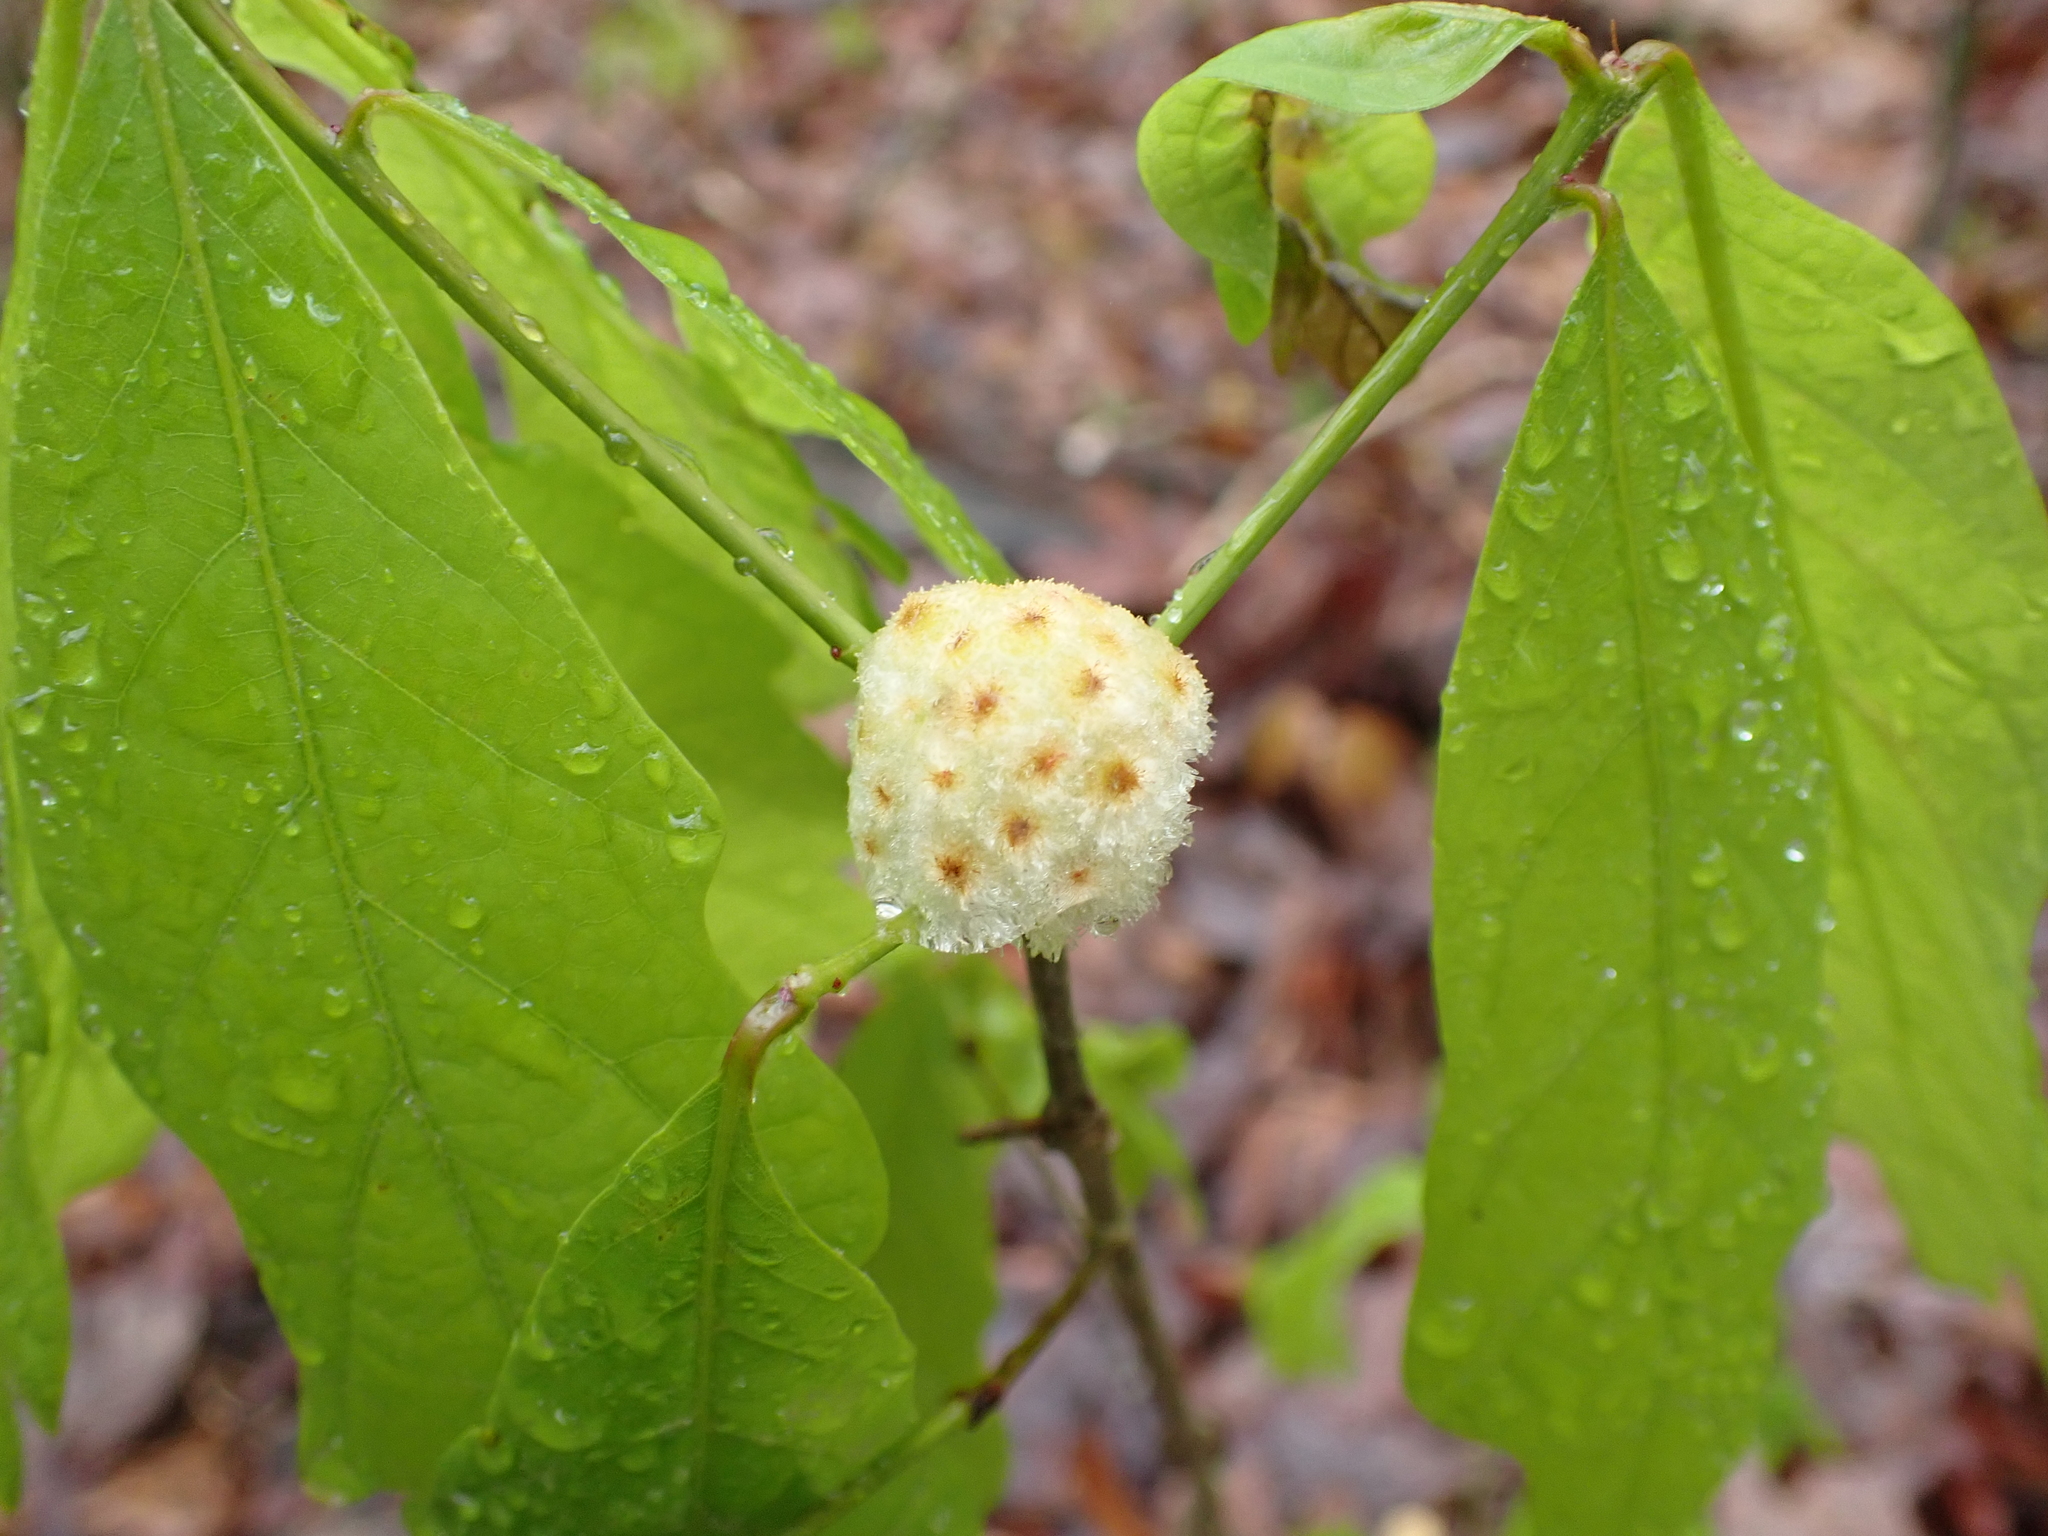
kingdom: Animalia
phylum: Arthropoda
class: Insecta
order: Hymenoptera
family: Cynipidae
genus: Callirhytis
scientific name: Callirhytis
